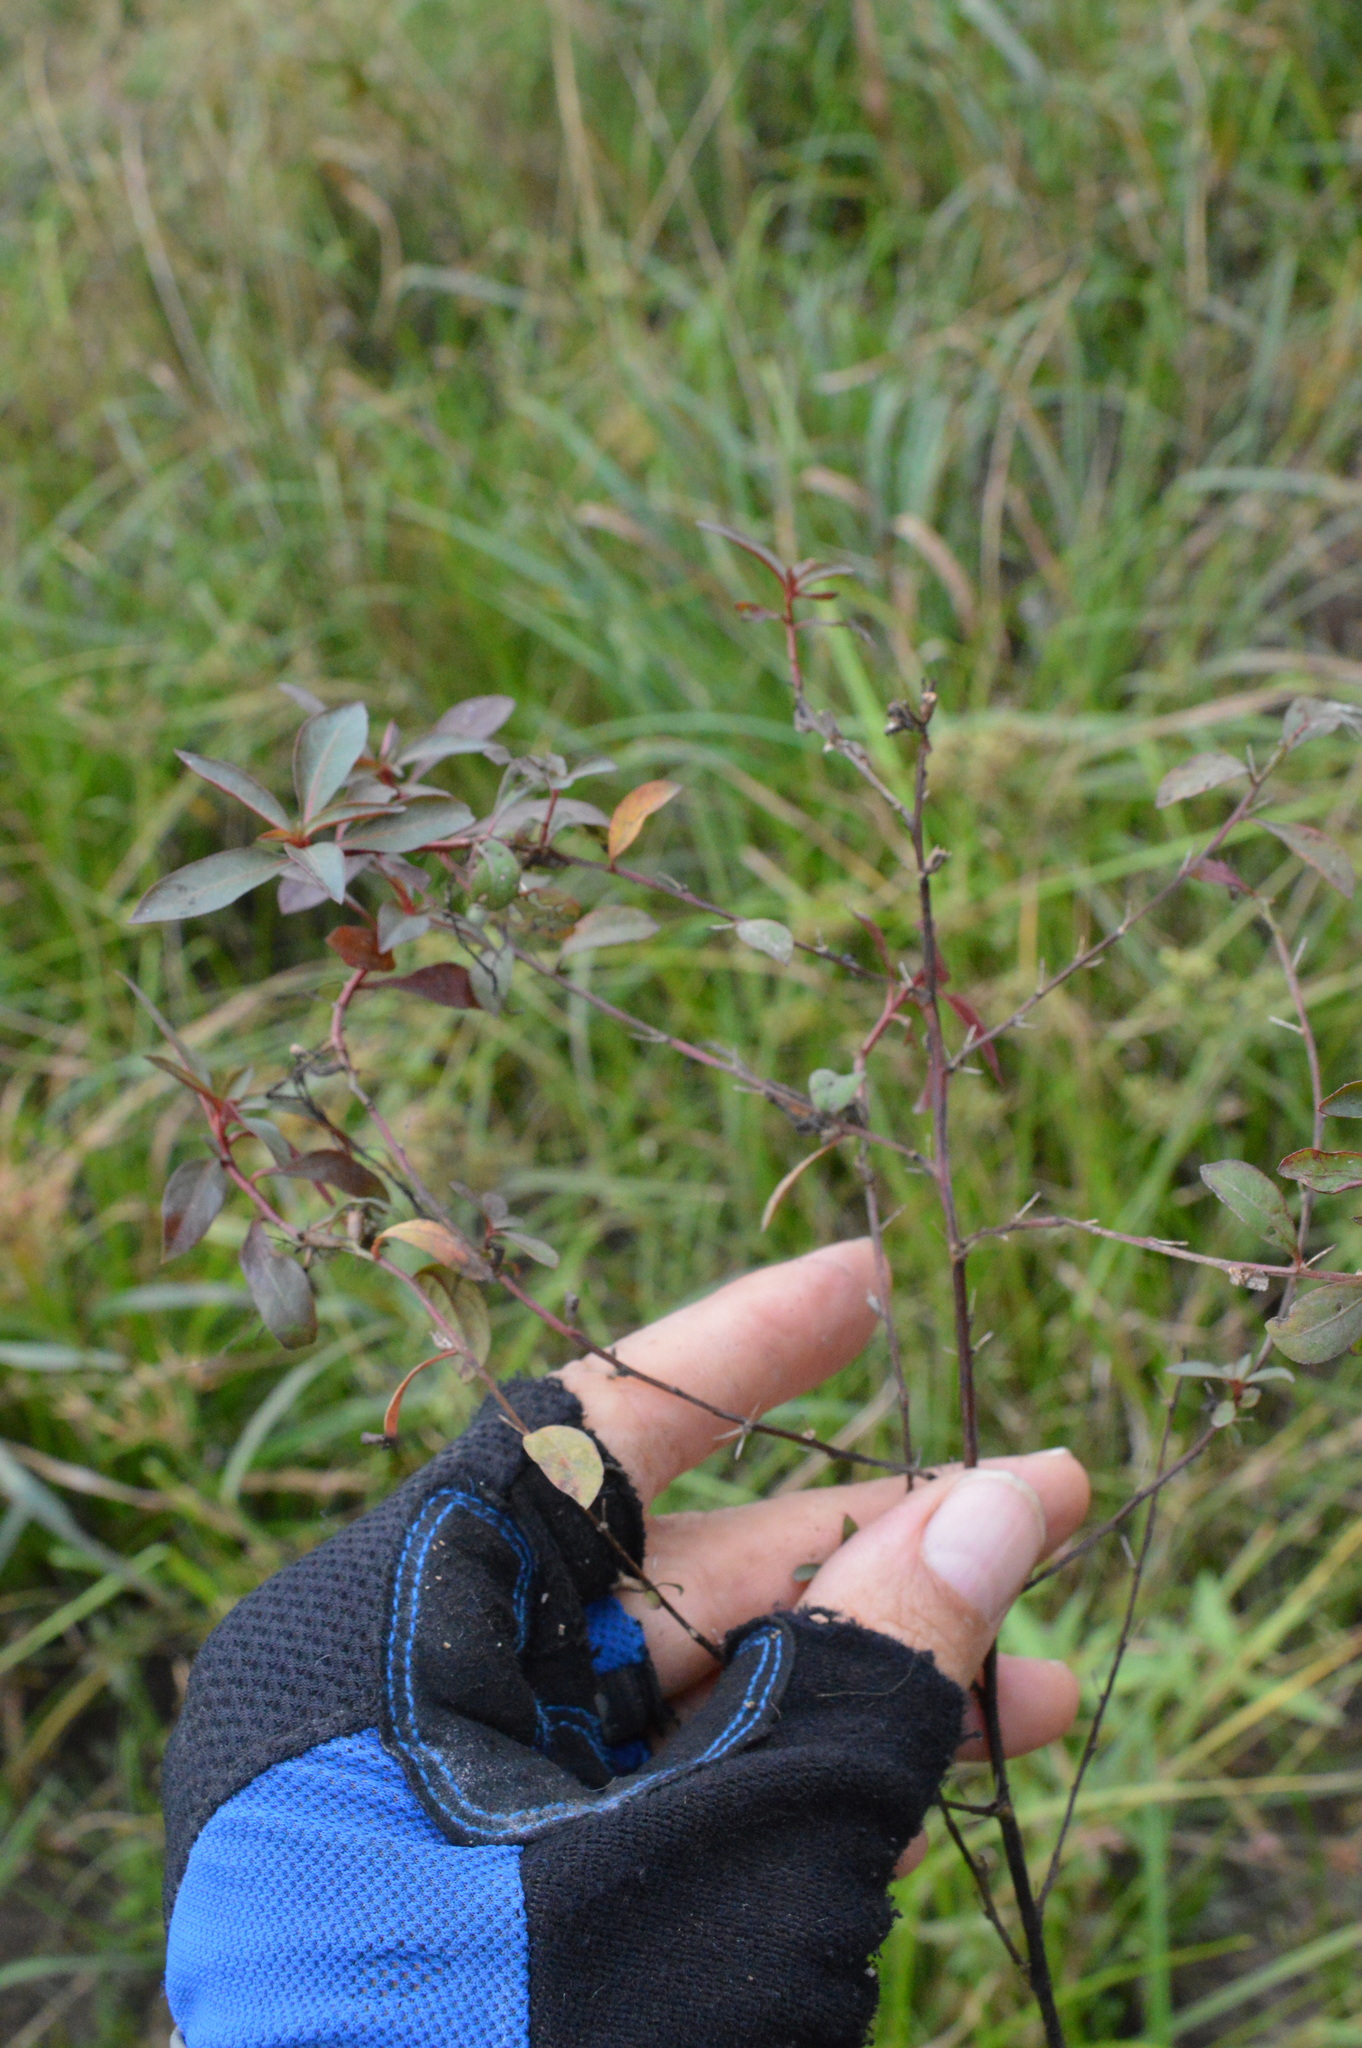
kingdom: Plantae
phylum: Tracheophyta
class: Magnoliopsida
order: Myrtales
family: Onagraceae
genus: Ludwigia
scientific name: Ludwigia glandulosa
